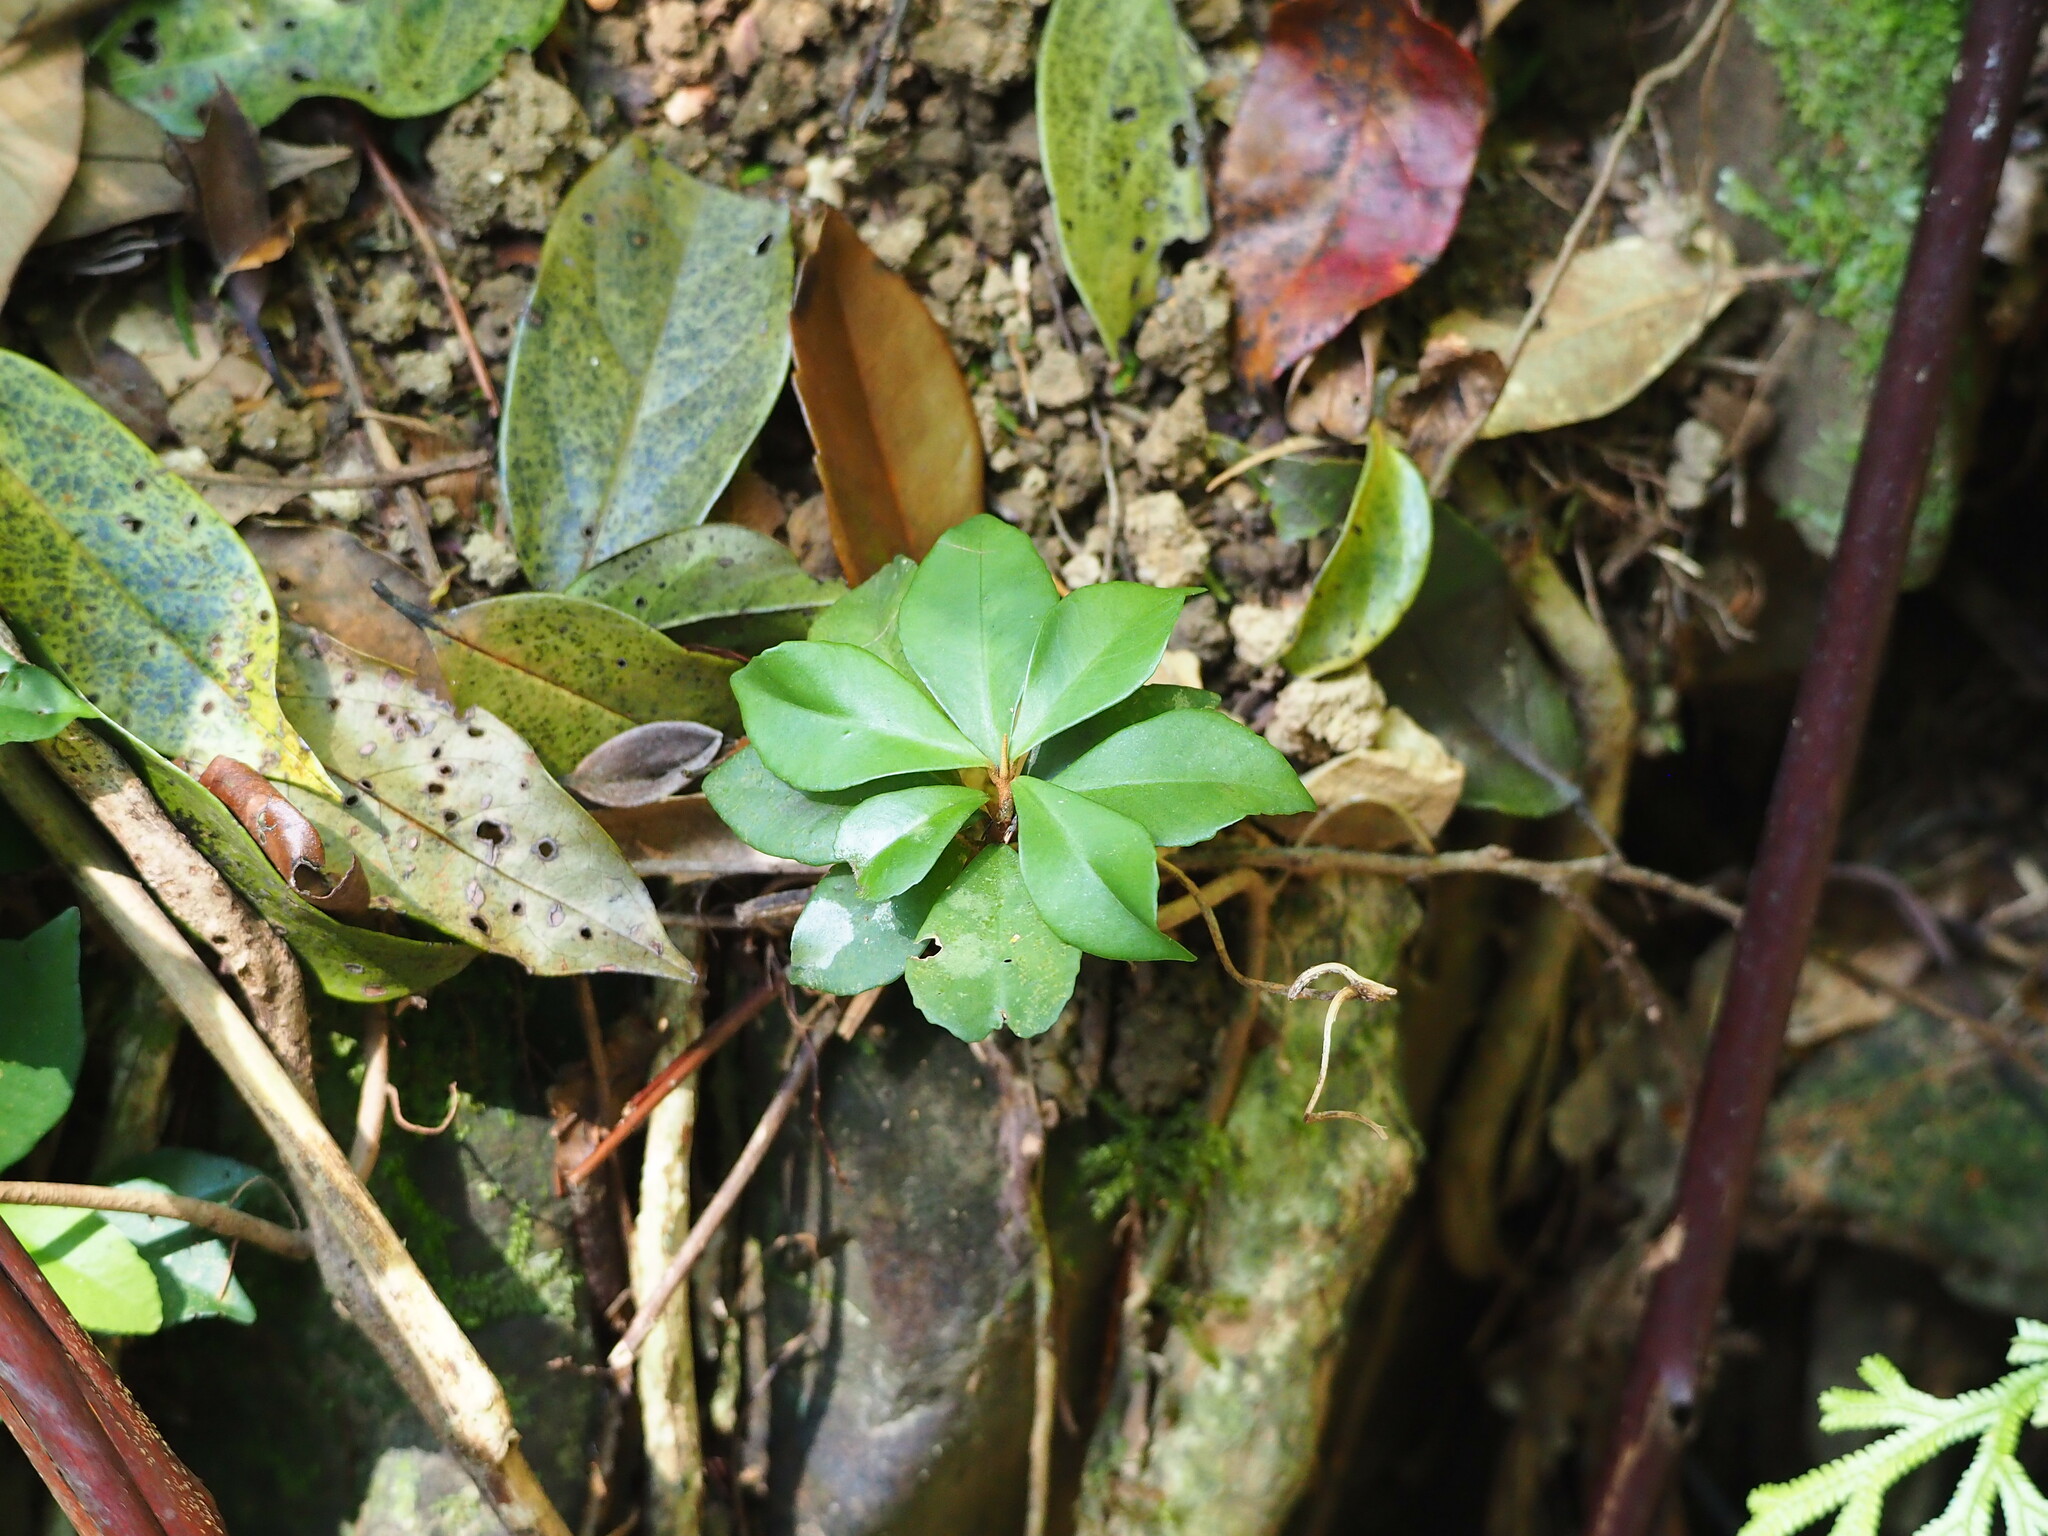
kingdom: Plantae
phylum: Tracheophyta
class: Magnoliopsida
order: Ericales
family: Primulaceae
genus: Ardisia
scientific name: Ardisia cymosa
